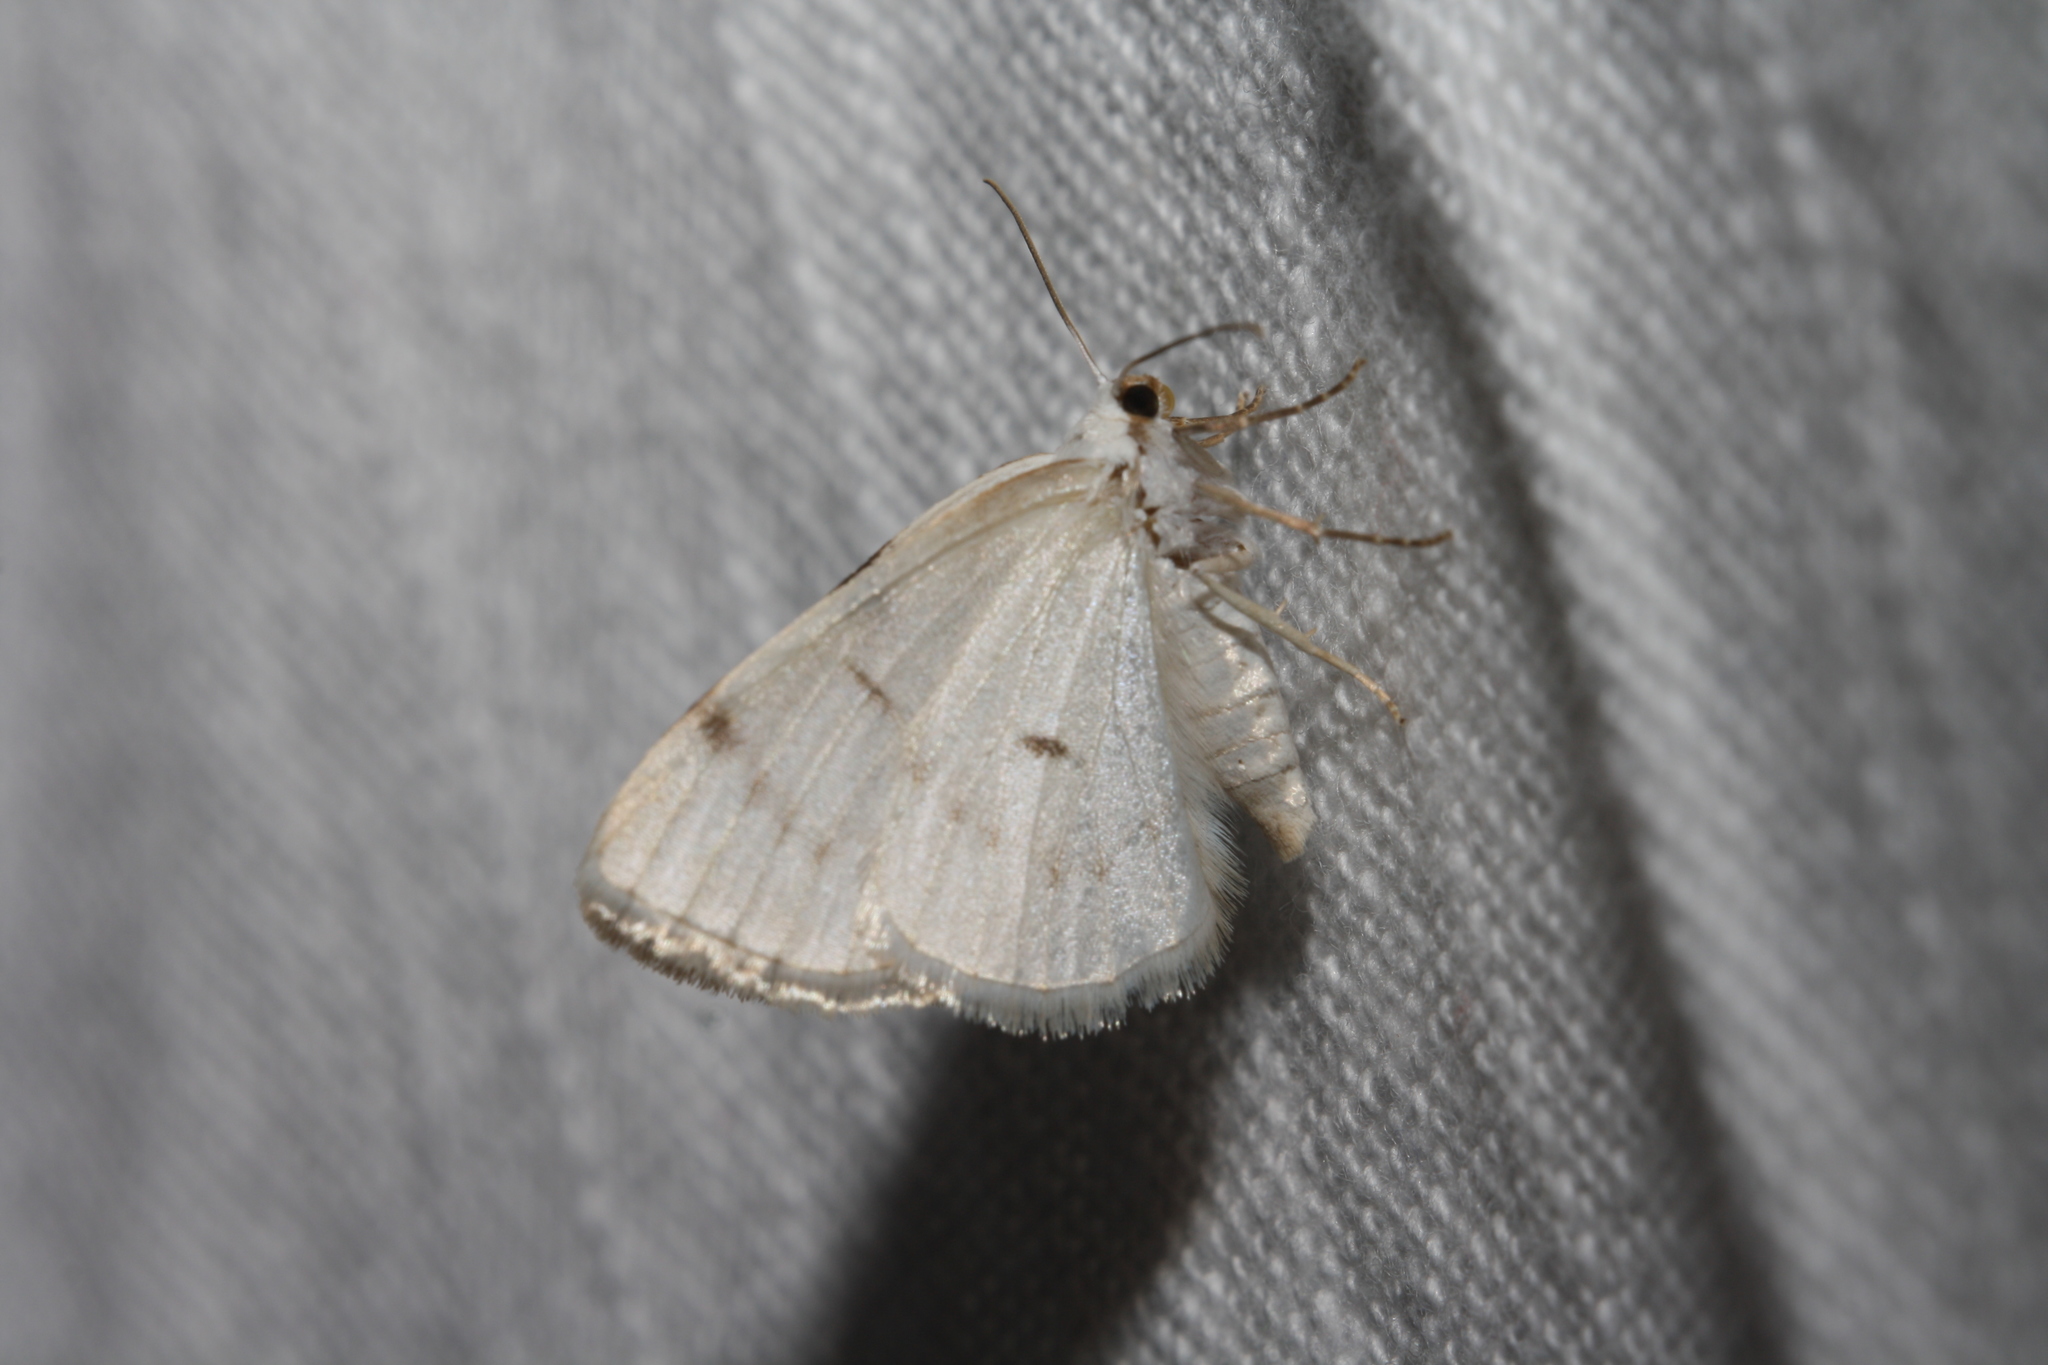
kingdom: Animalia
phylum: Arthropoda
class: Insecta
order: Lepidoptera
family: Geometridae
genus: Lomographa
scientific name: Lomographa bimaculata
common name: White-pinion spotted
